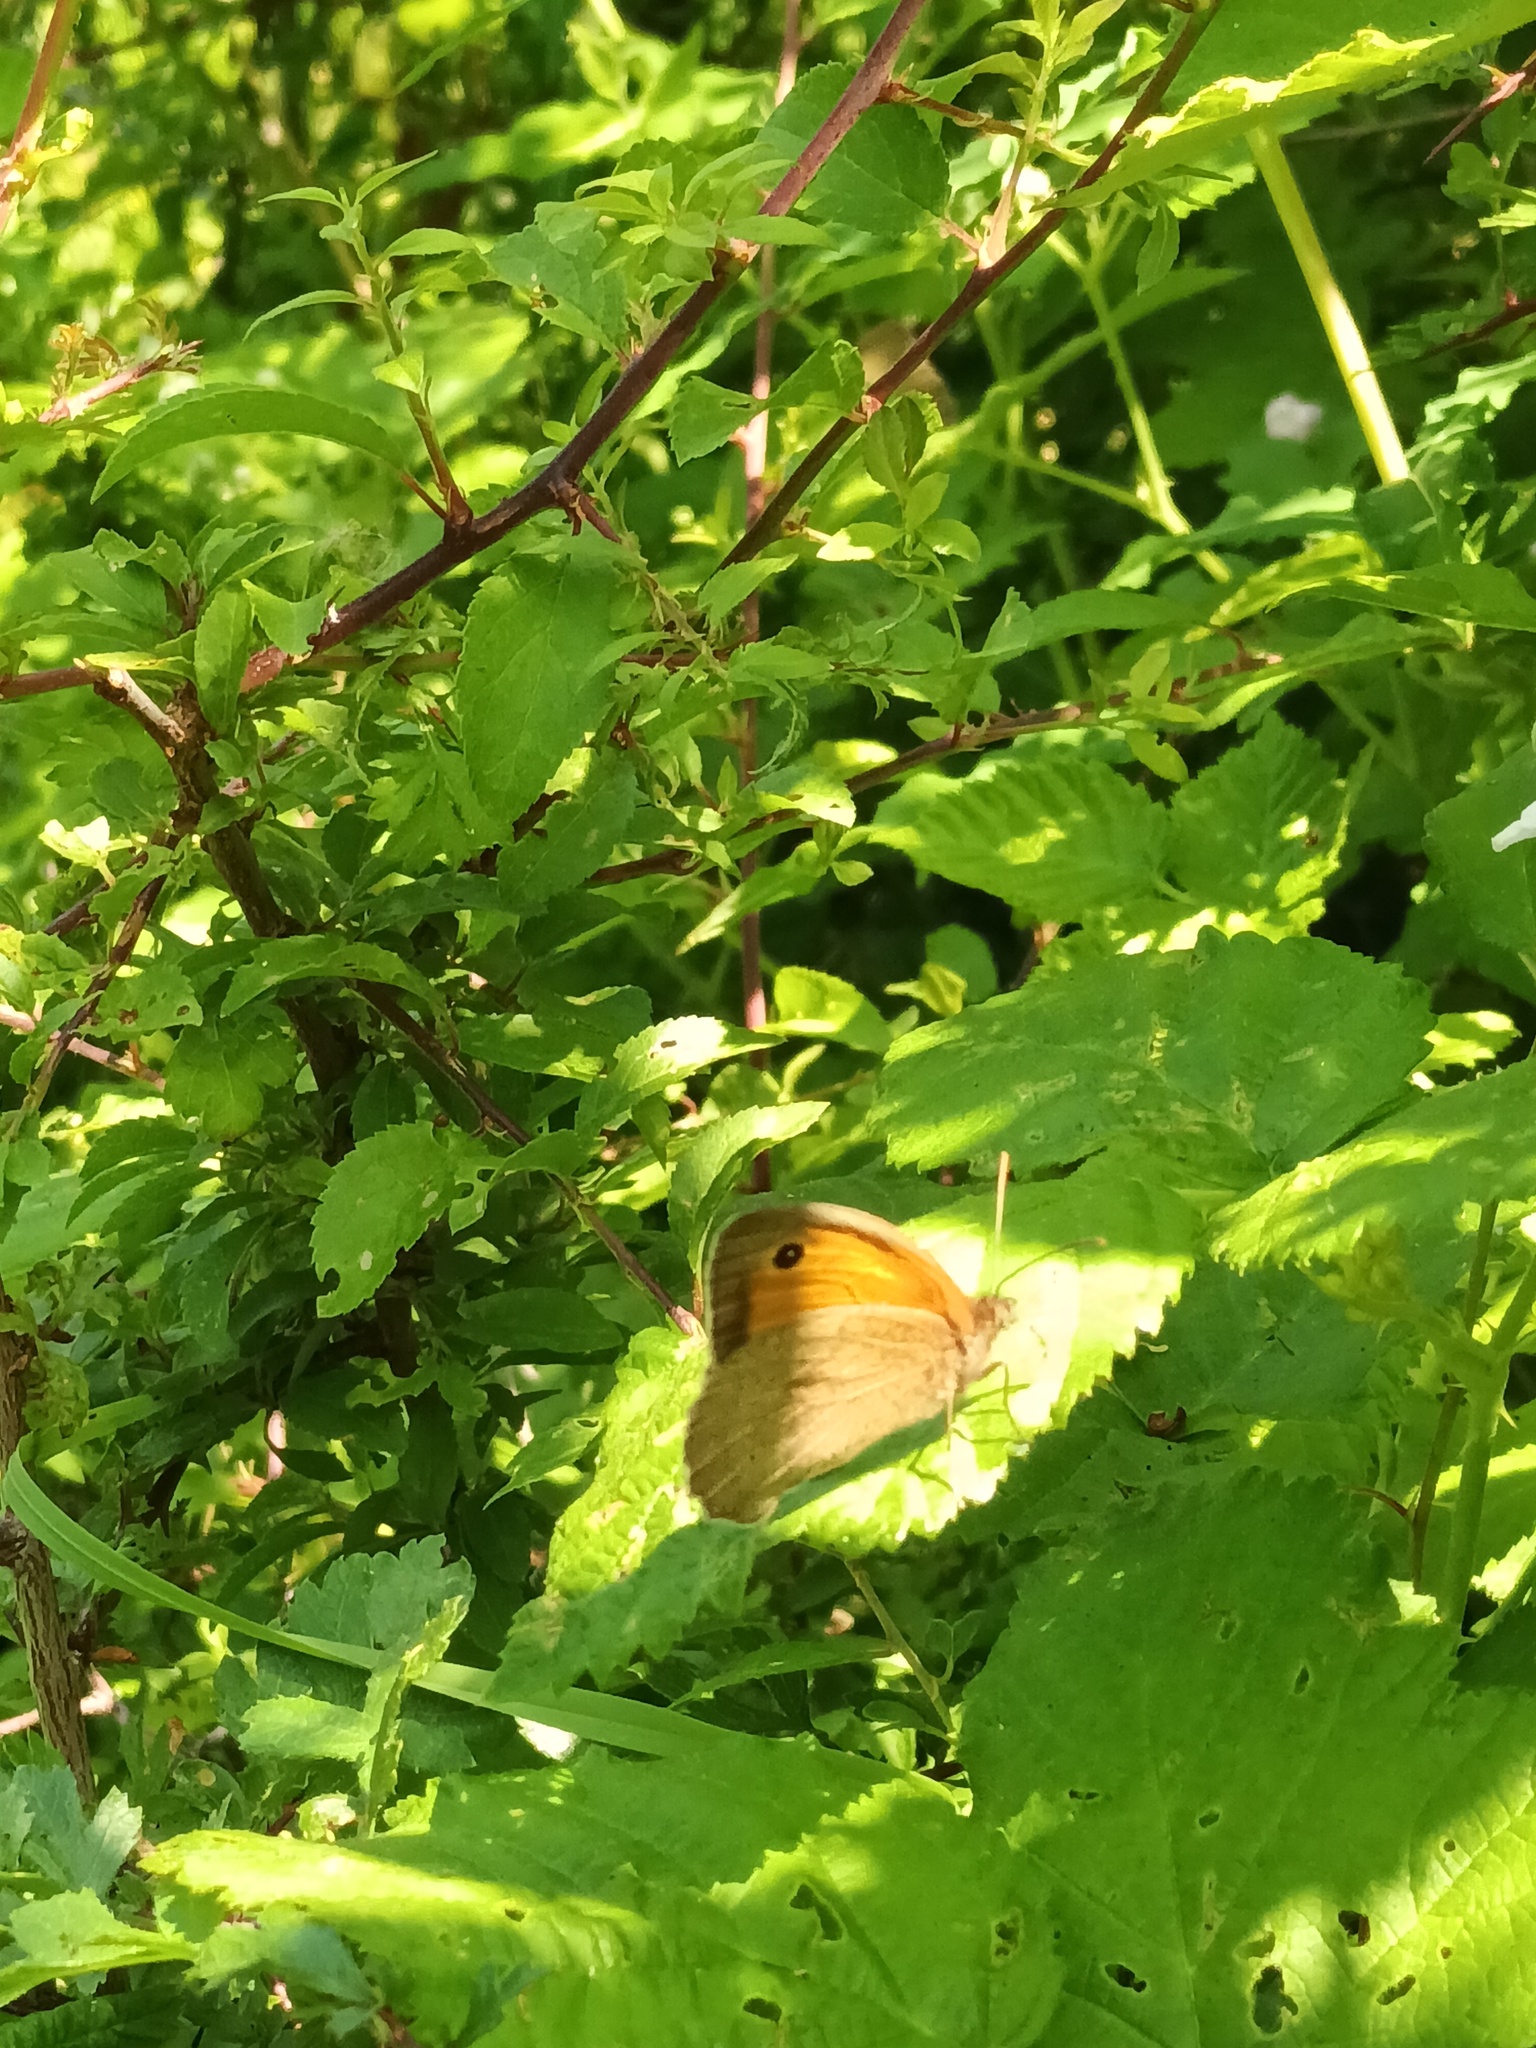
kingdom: Animalia
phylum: Arthropoda
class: Insecta
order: Lepidoptera
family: Nymphalidae
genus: Maniola
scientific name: Maniola jurtina
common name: Meadow brown
